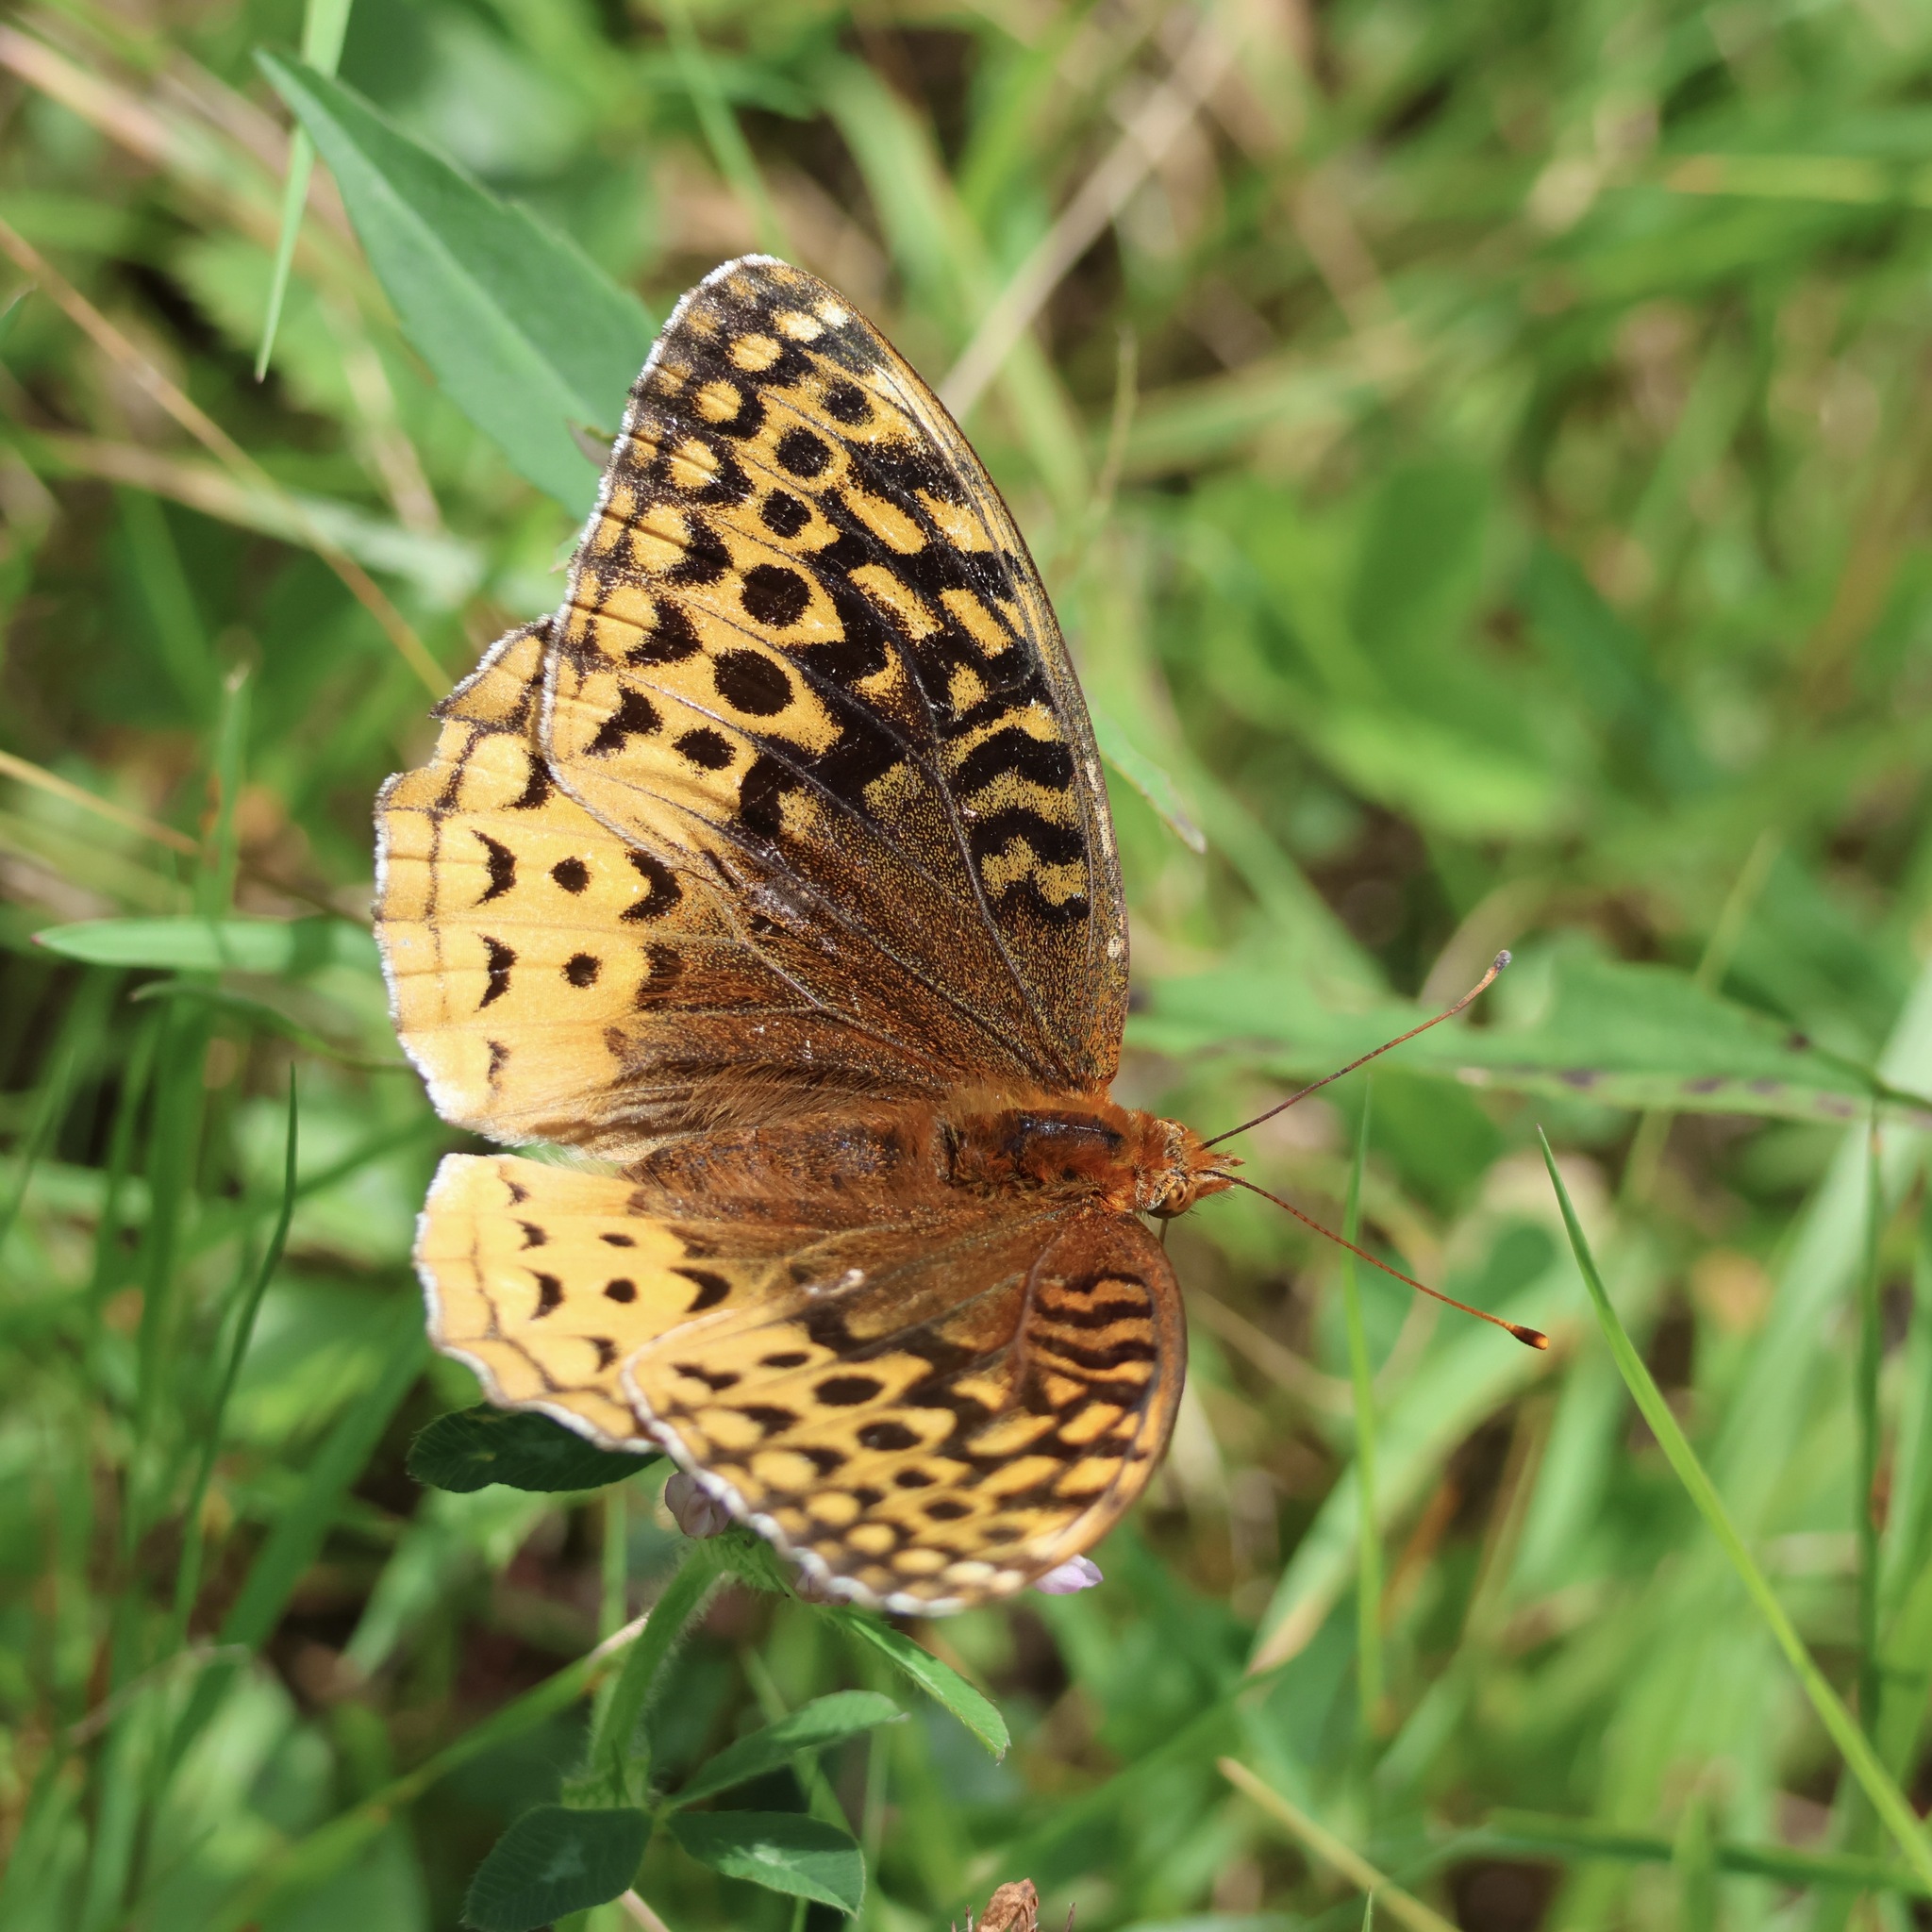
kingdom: Animalia
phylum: Arthropoda
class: Insecta
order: Lepidoptera
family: Nymphalidae
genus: Speyeria
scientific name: Speyeria cybele
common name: Great spangled fritillary
